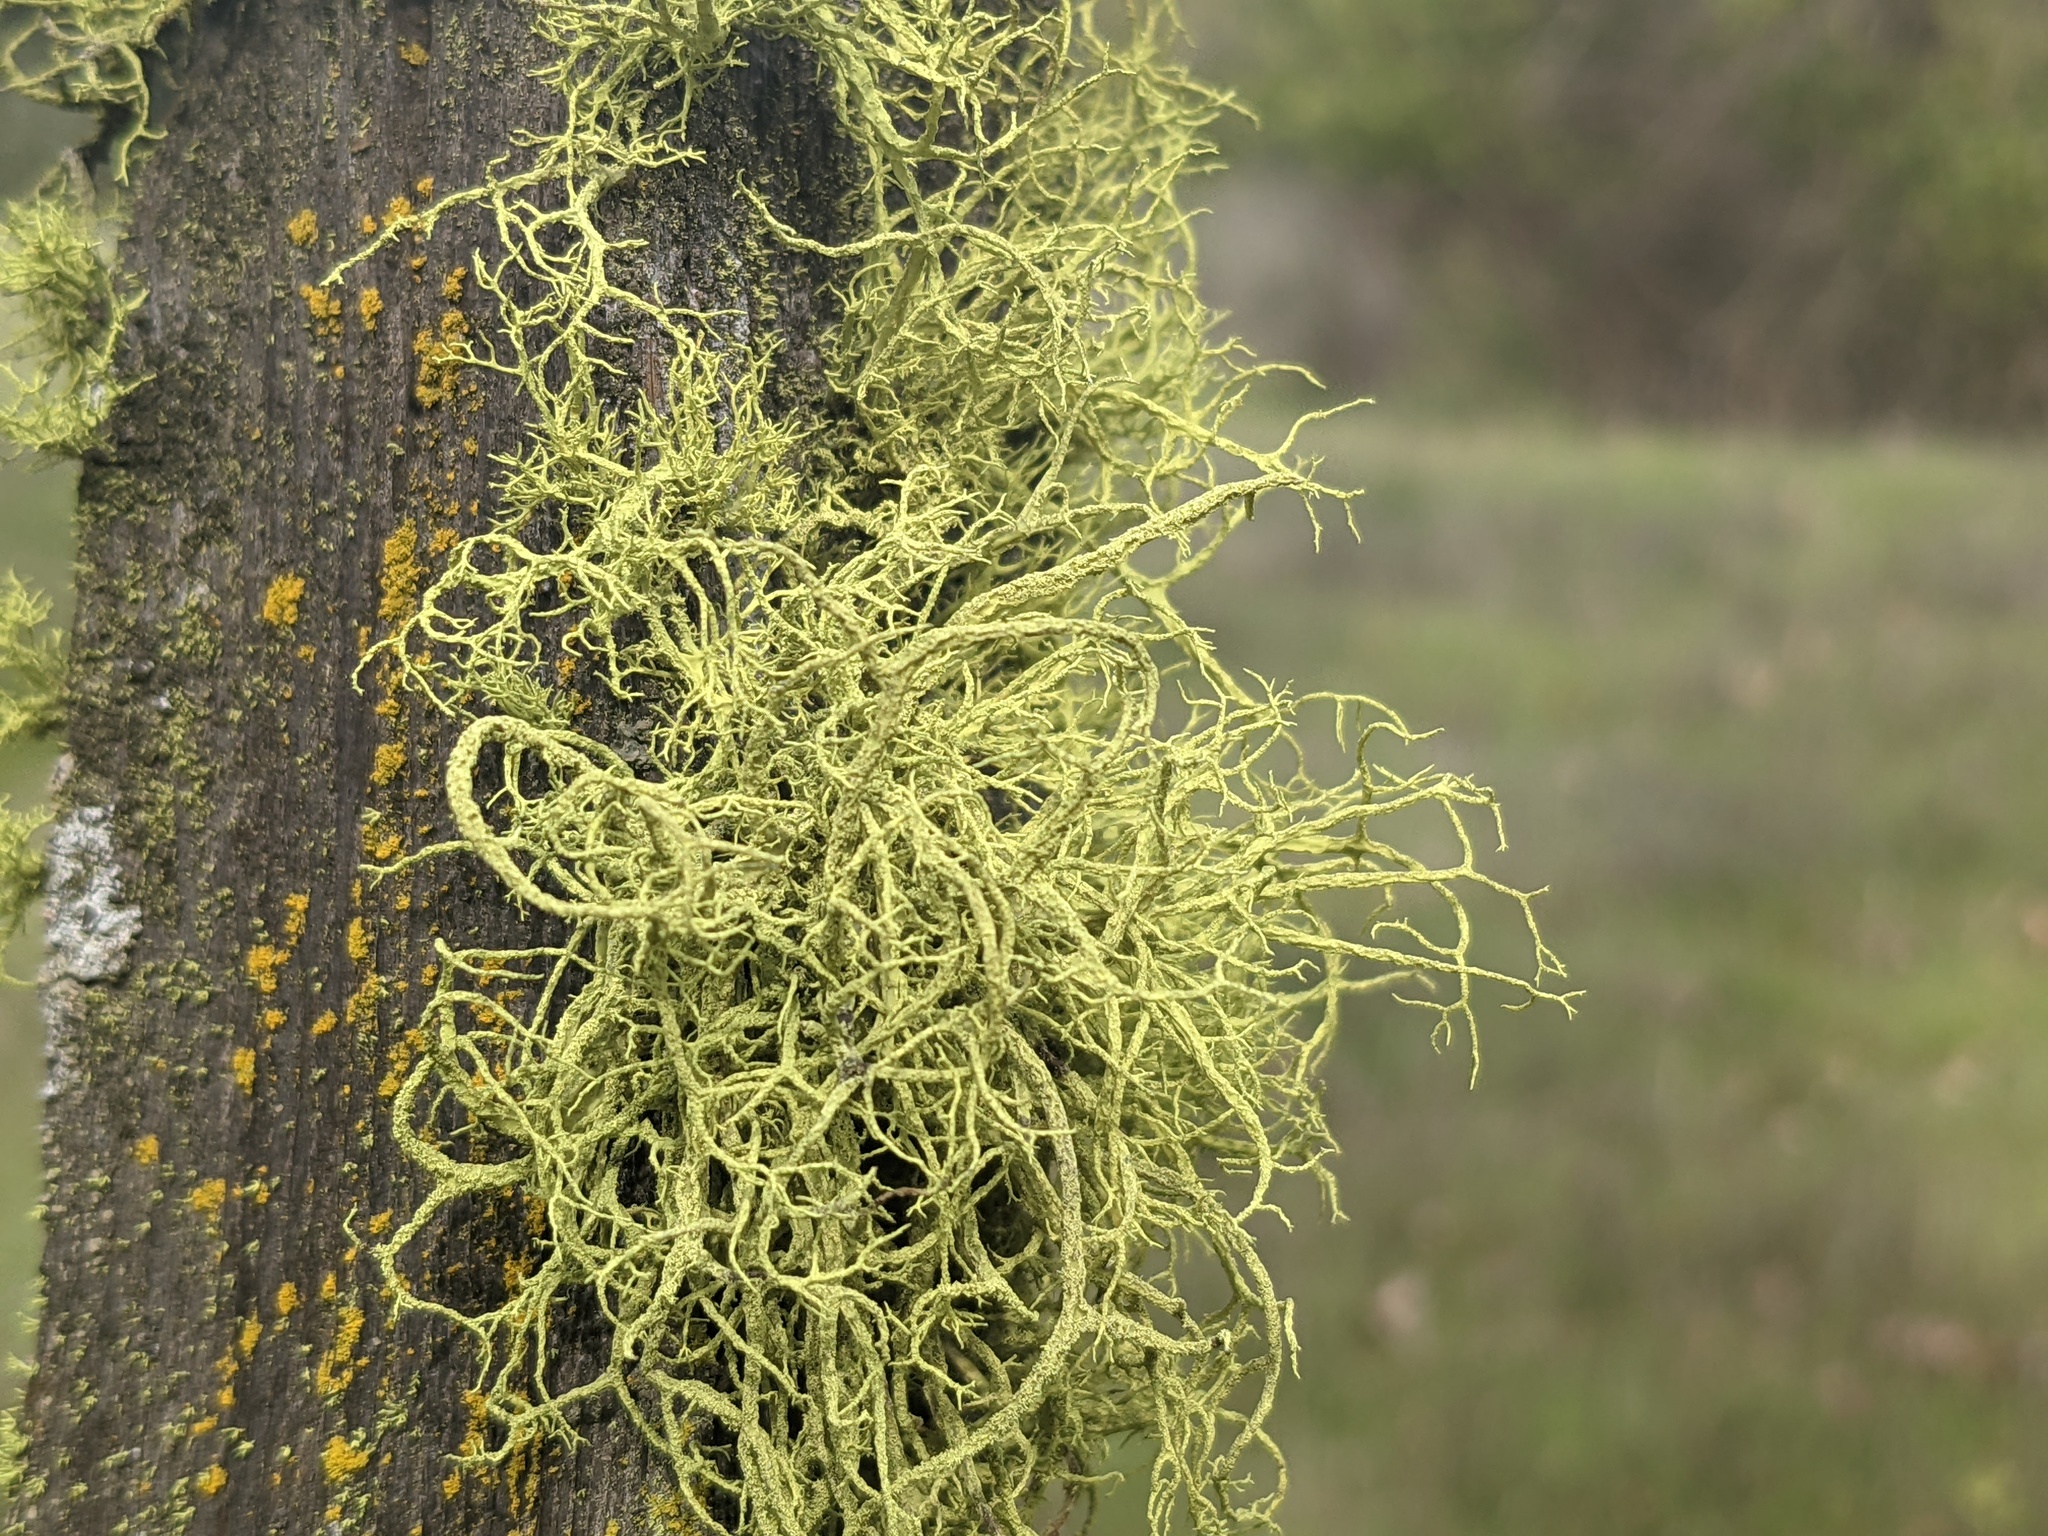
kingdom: Fungi
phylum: Ascomycota
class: Lecanoromycetes
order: Lecanorales
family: Parmeliaceae
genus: Letharia
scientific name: Letharia vulpina
